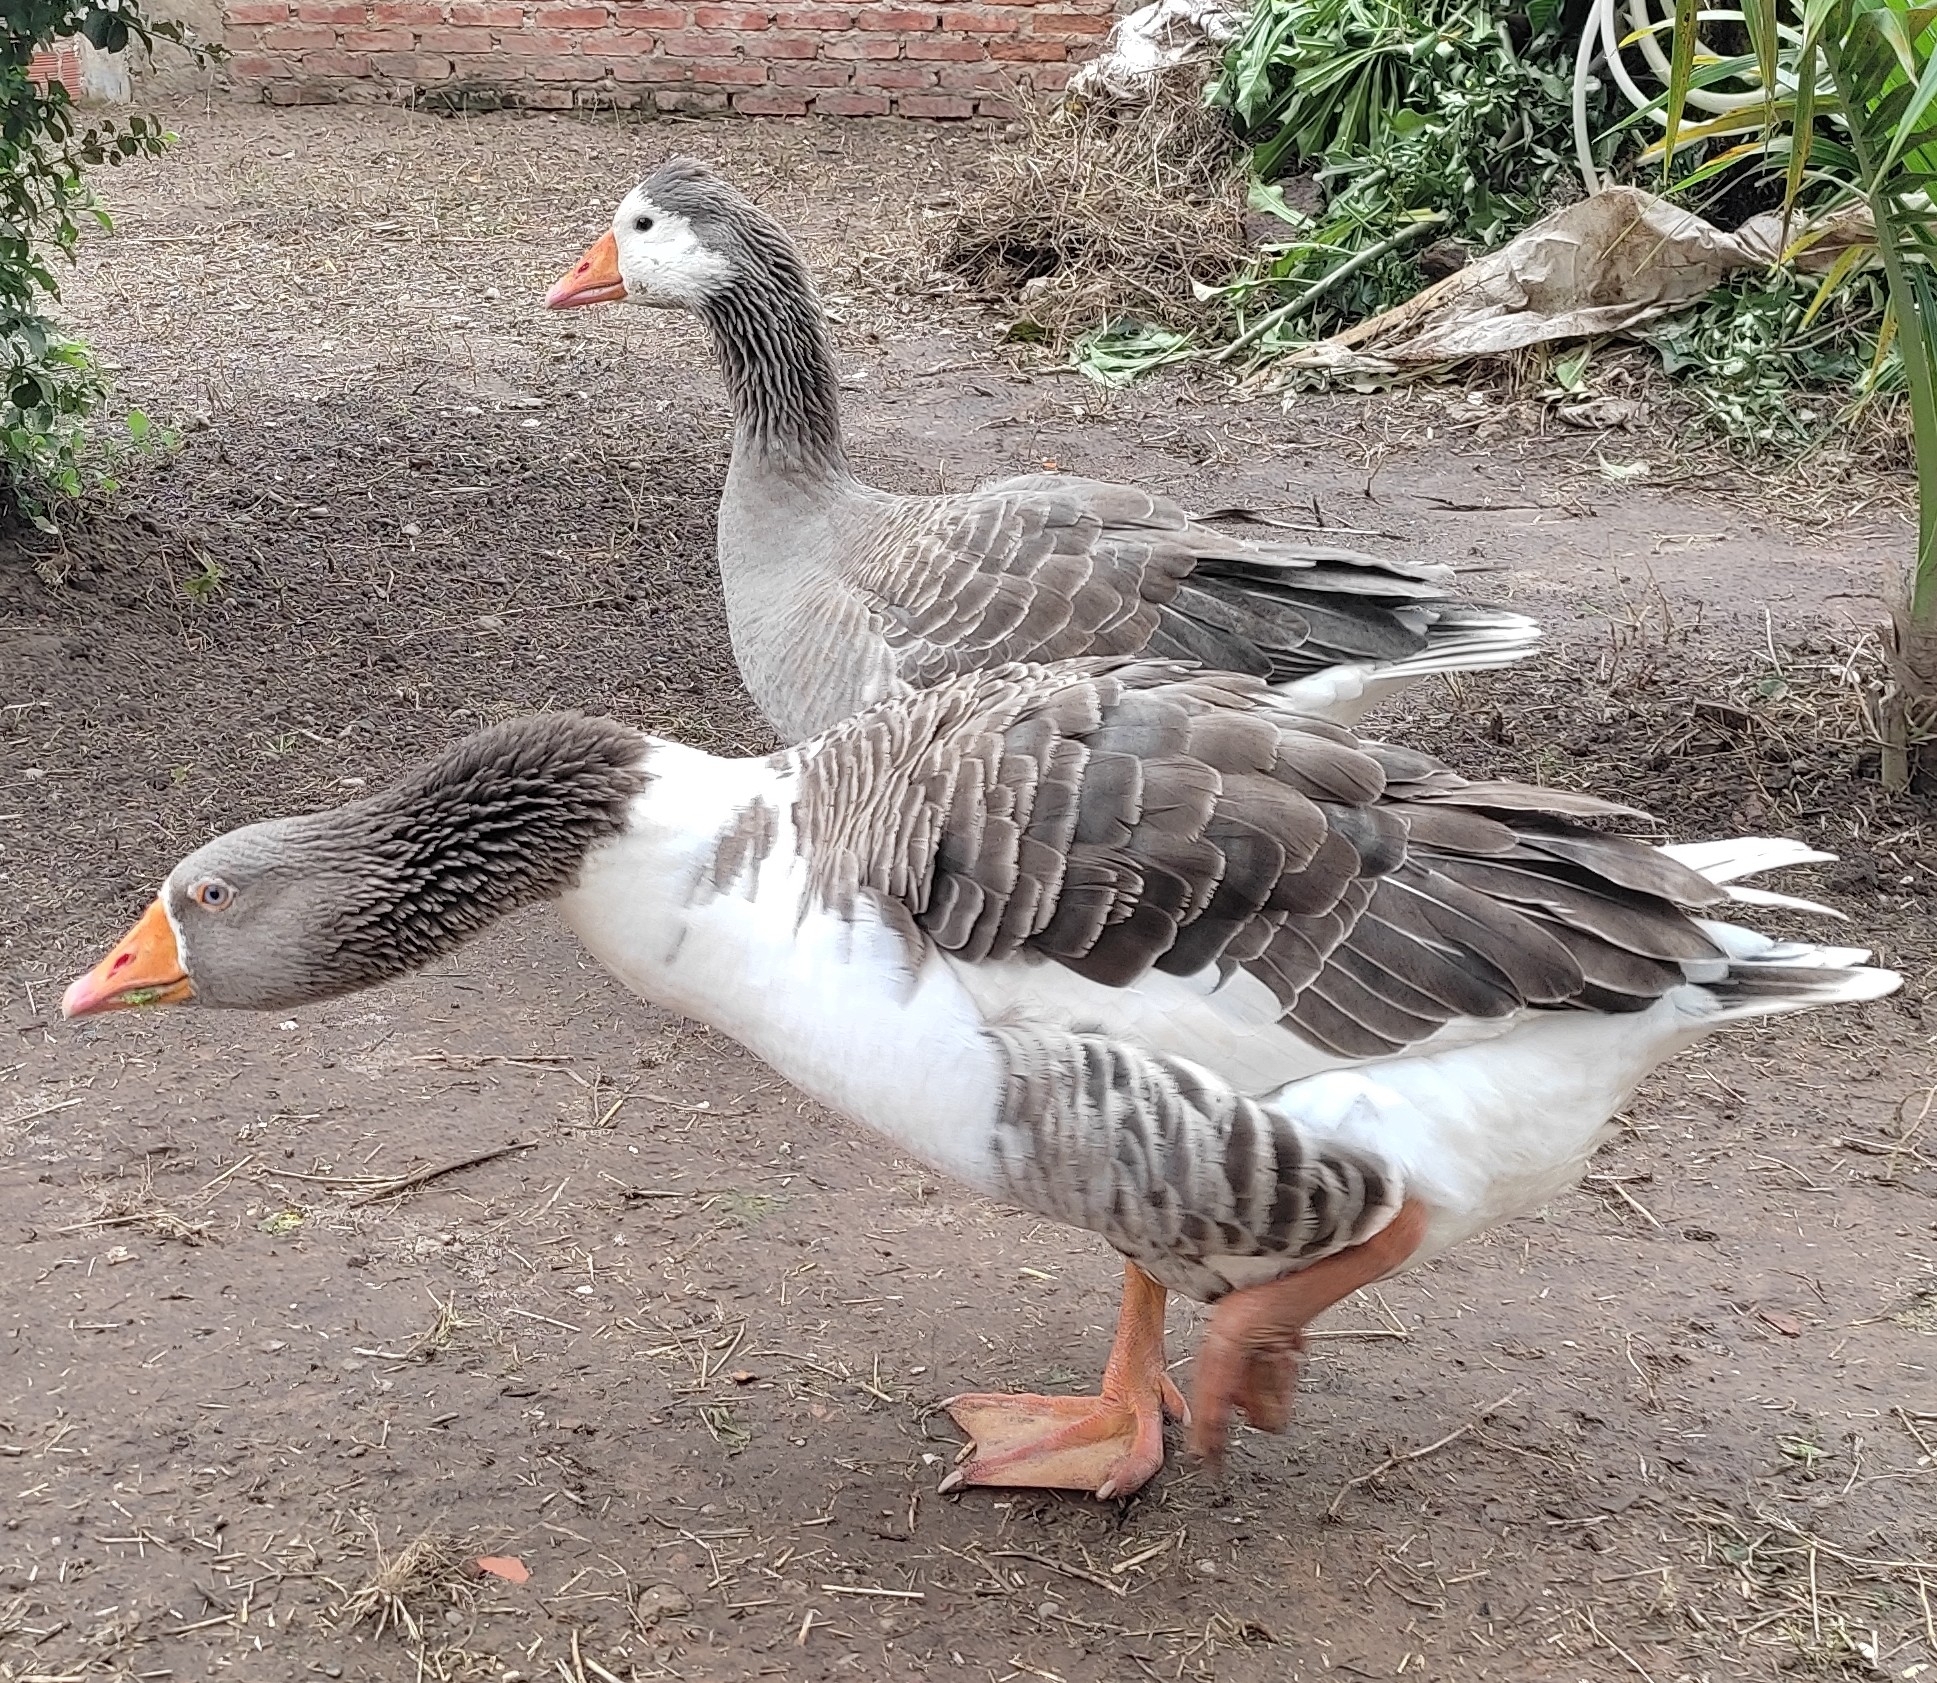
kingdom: Animalia
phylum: Chordata
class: Aves
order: Anseriformes
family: Anatidae
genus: Anser
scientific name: Anser anser
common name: Greylag goose
